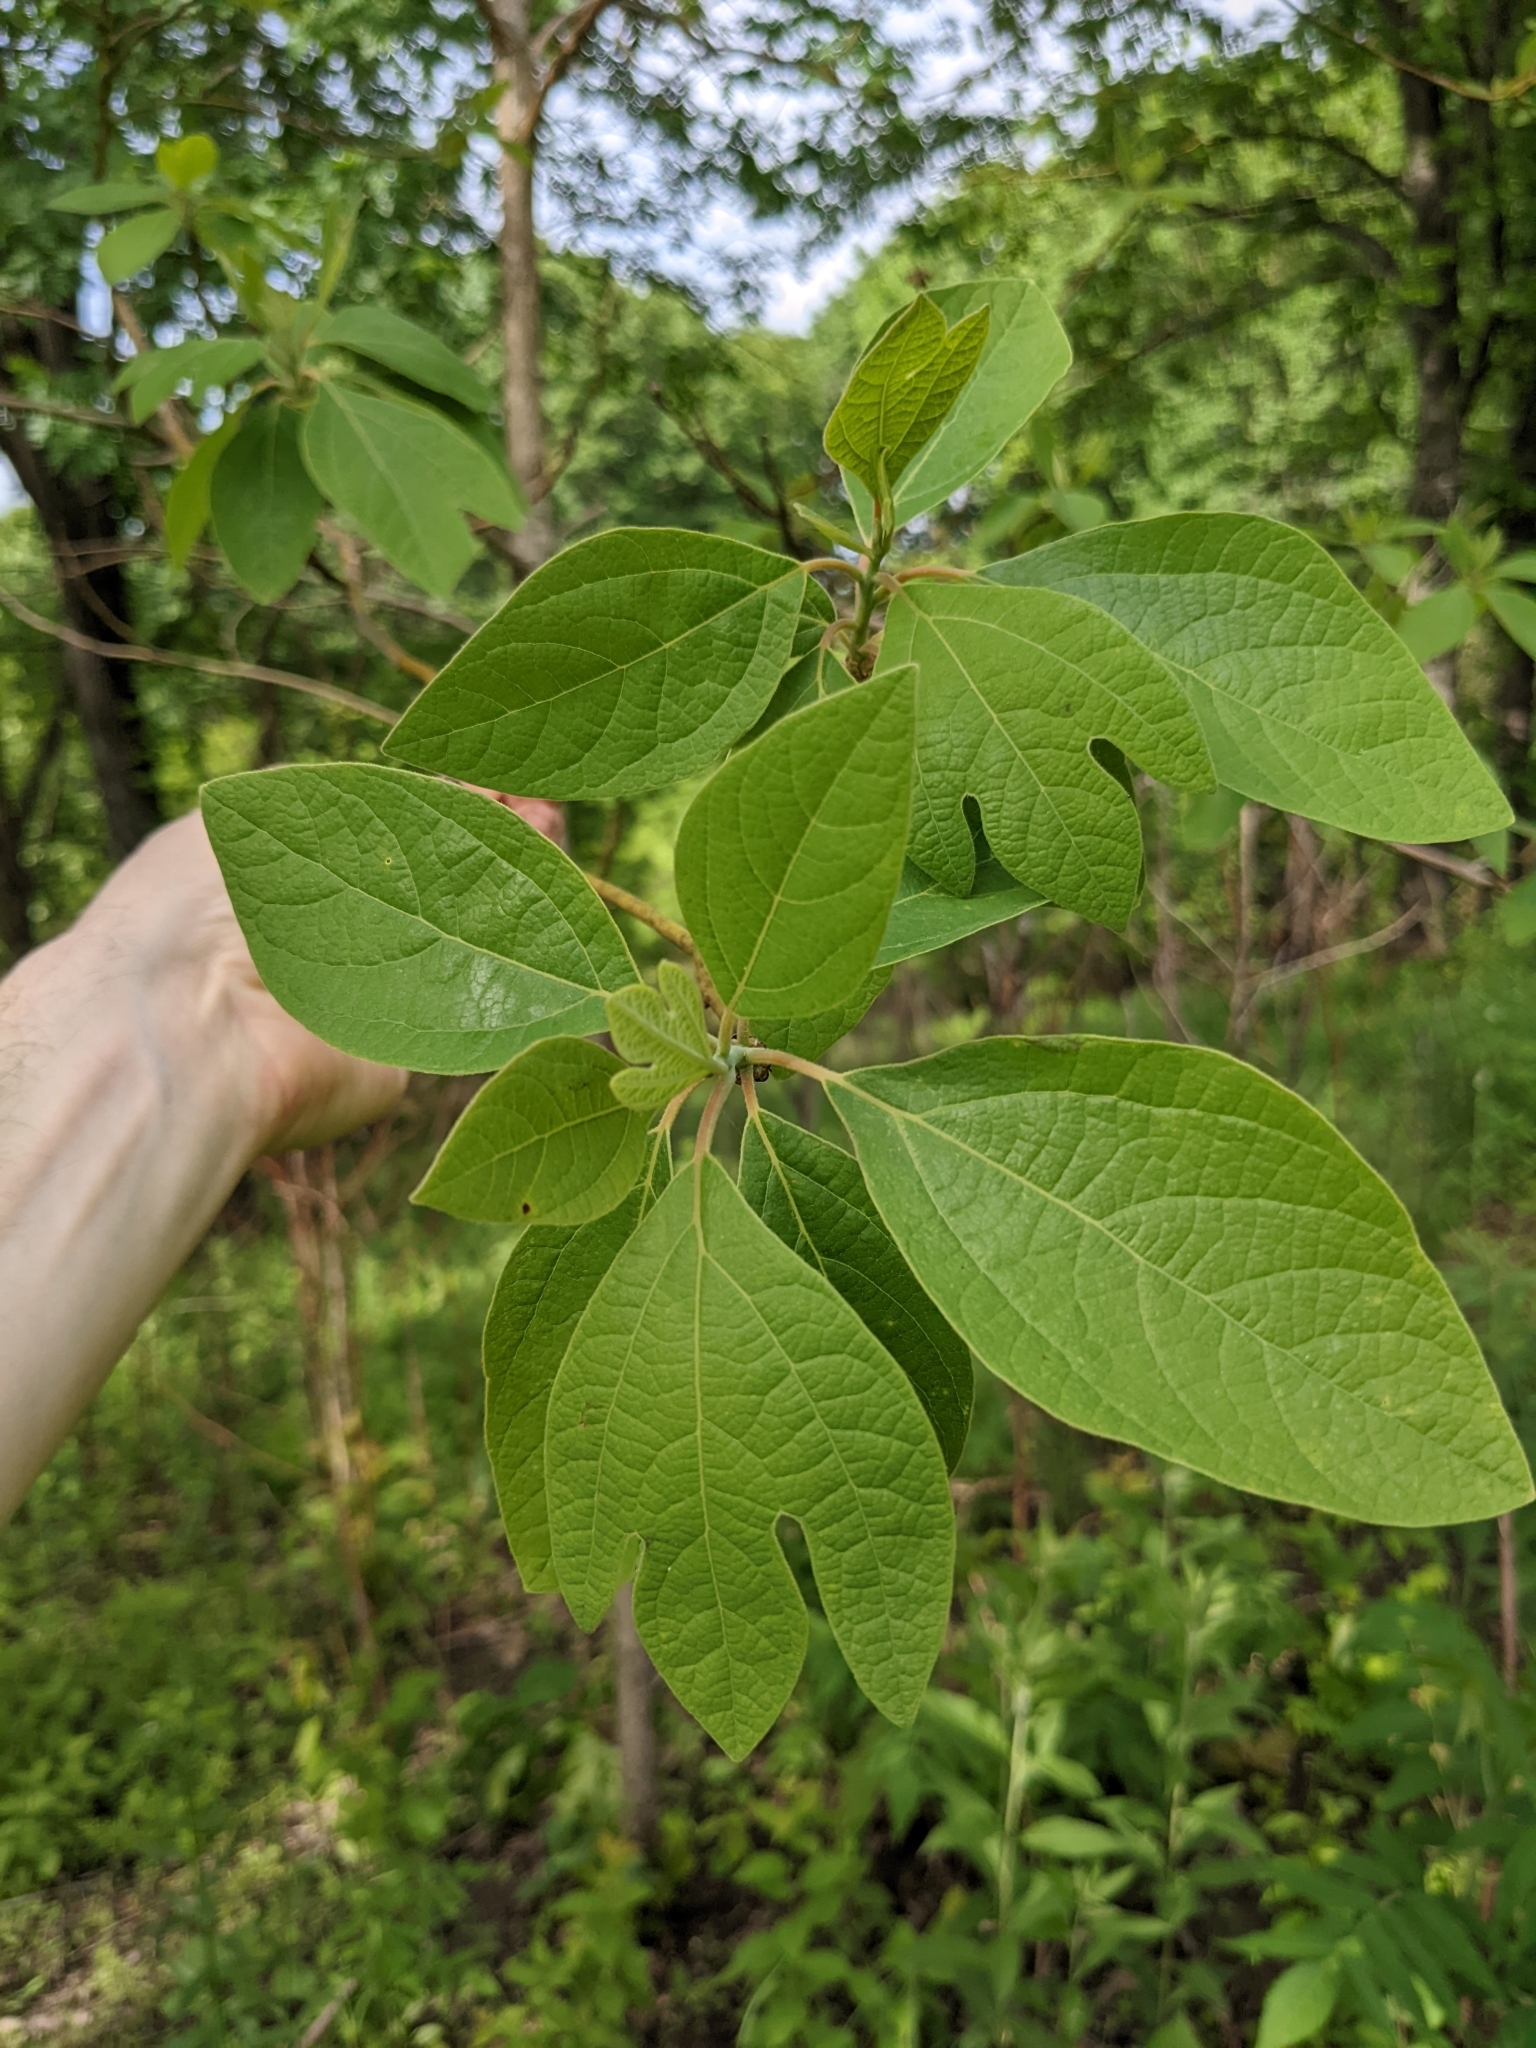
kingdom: Plantae
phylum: Tracheophyta
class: Magnoliopsida
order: Laurales
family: Lauraceae
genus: Sassafras
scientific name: Sassafras albidum
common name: Sassafras
